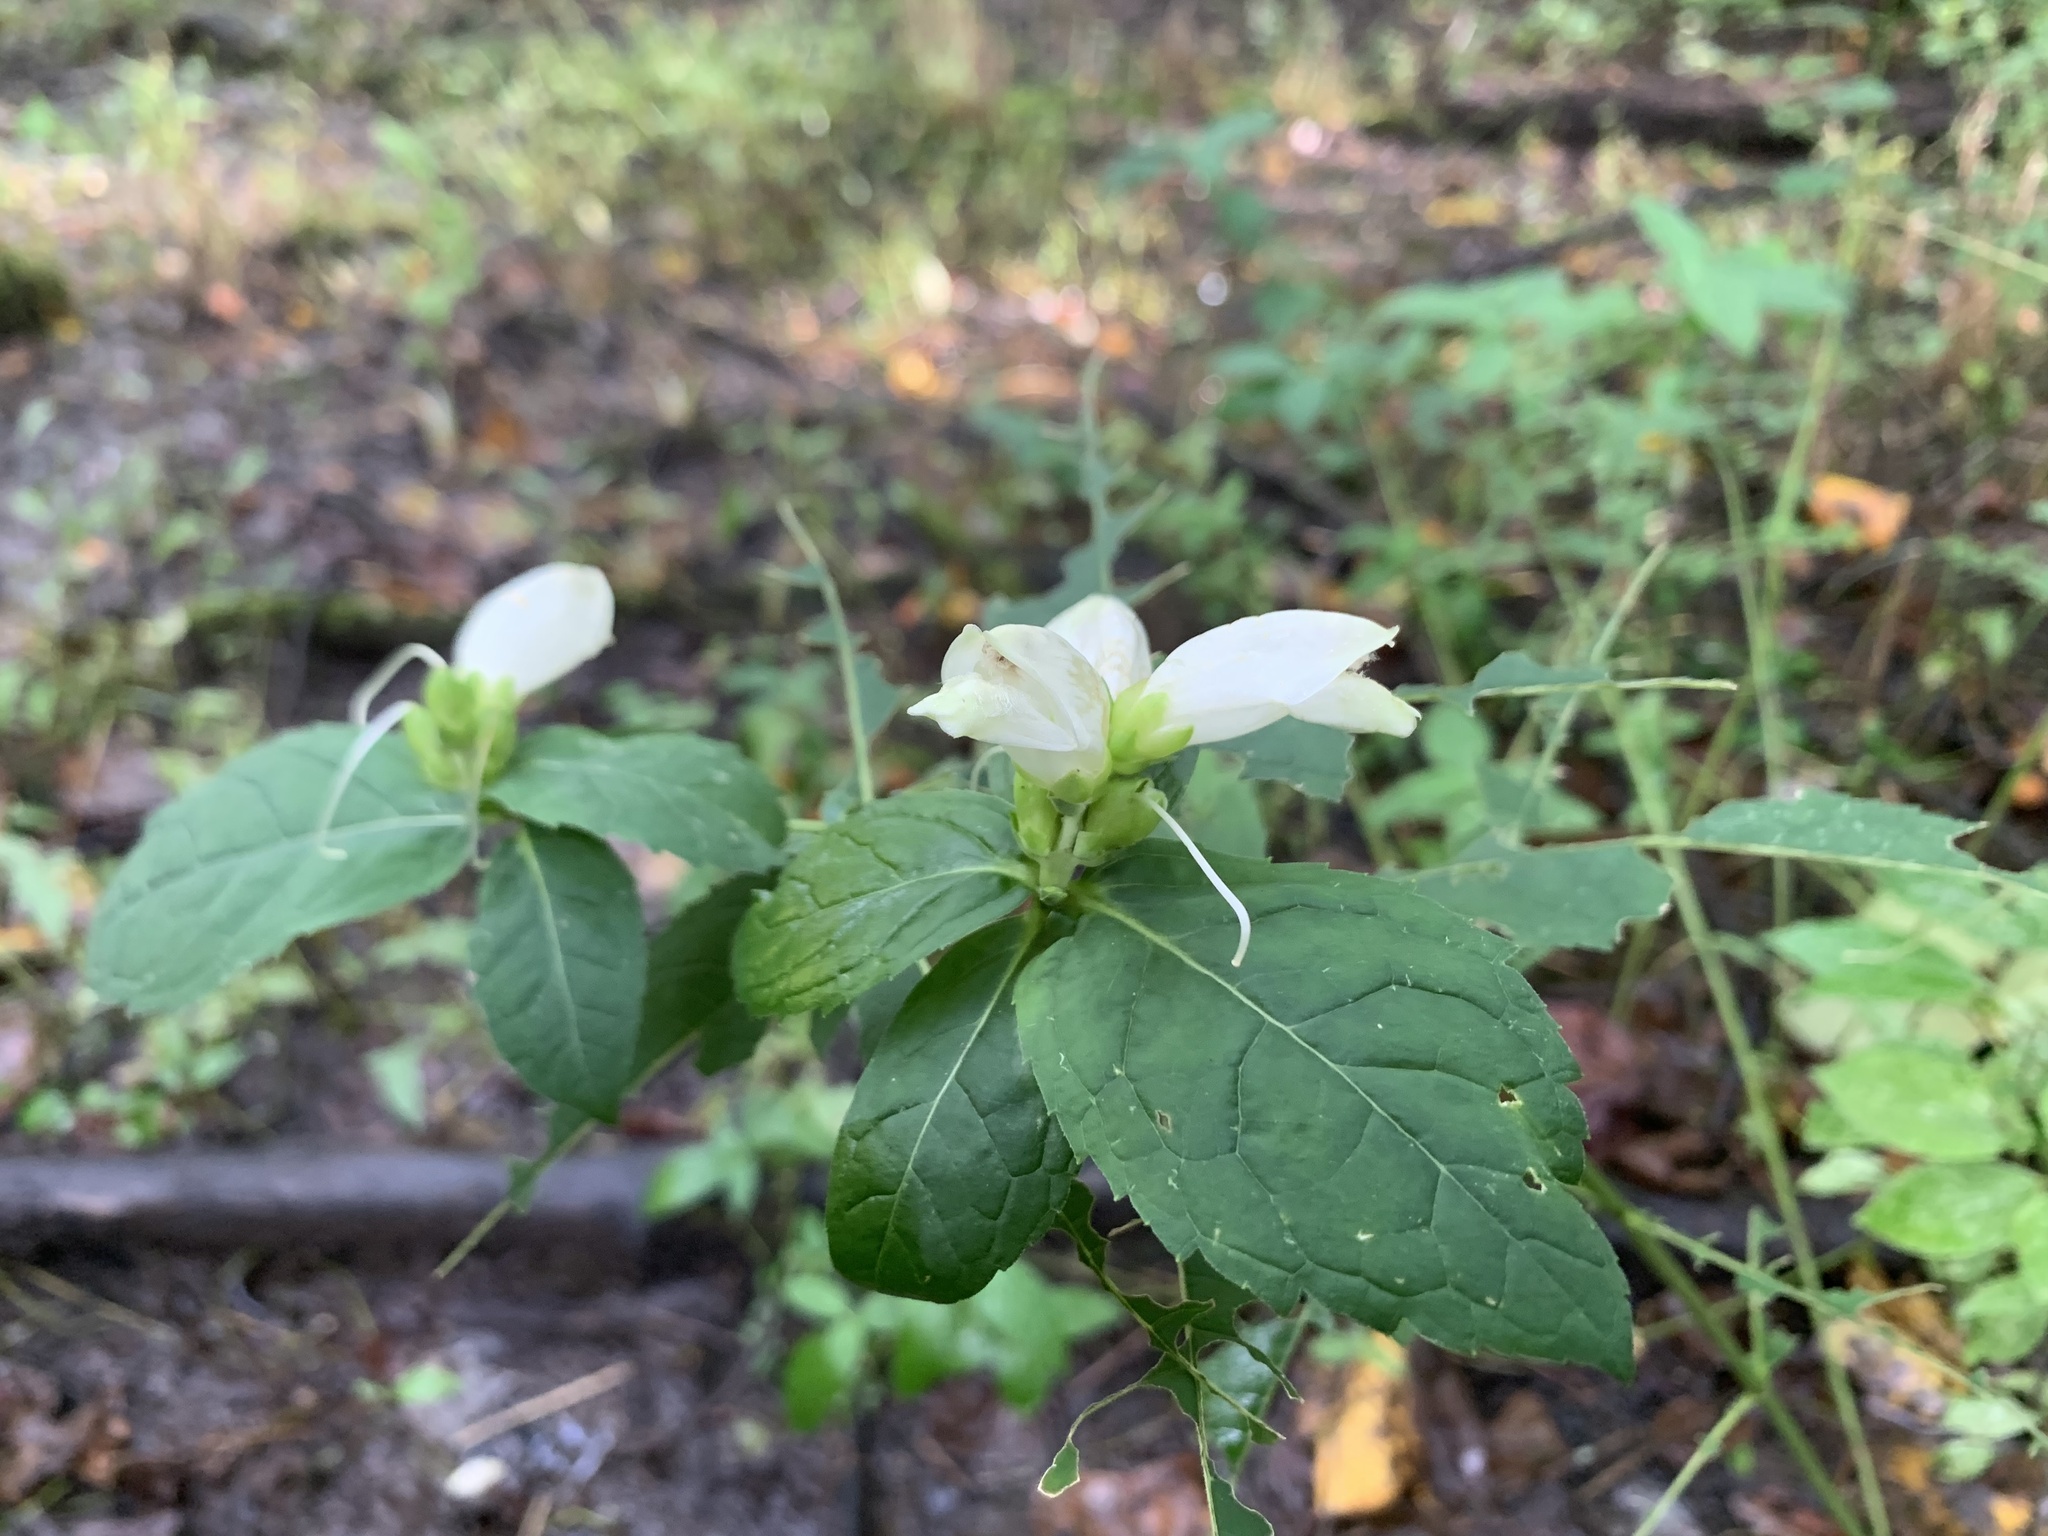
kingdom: Plantae
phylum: Tracheophyta
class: Magnoliopsida
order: Lamiales
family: Plantaginaceae
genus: Chelone
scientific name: Chelone glabra
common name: Snakehead
